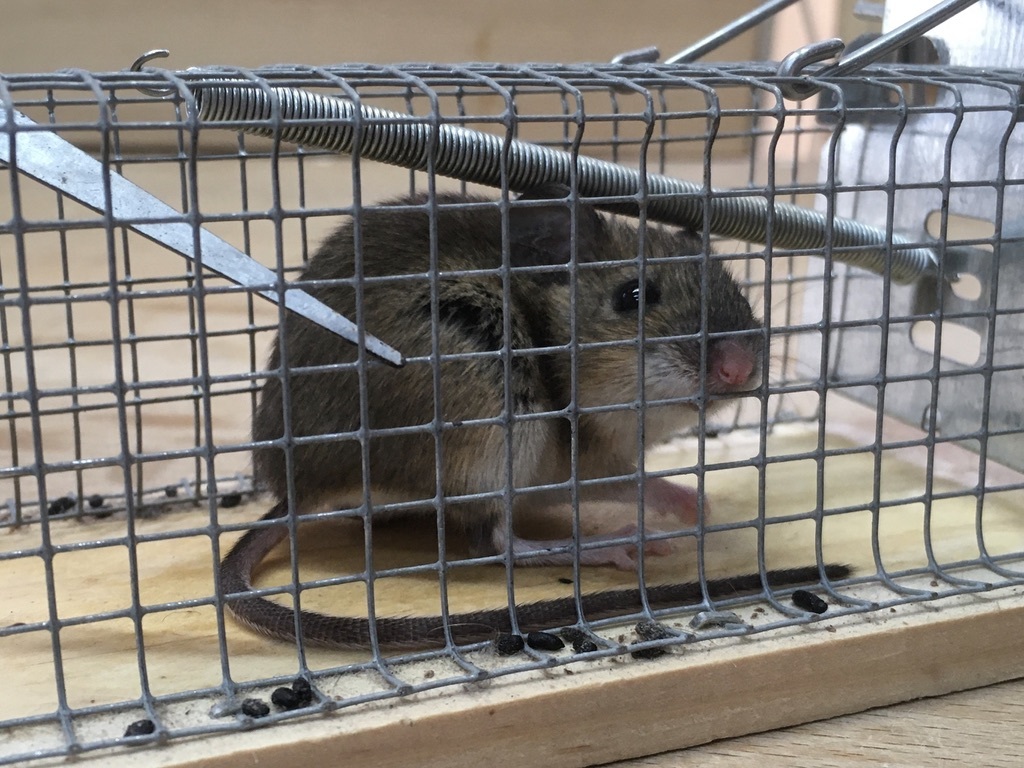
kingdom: Animalia
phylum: Chordata
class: Mammalia
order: Rodentia
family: Muridae
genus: Mus
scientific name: Mus musculus
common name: House mouse
